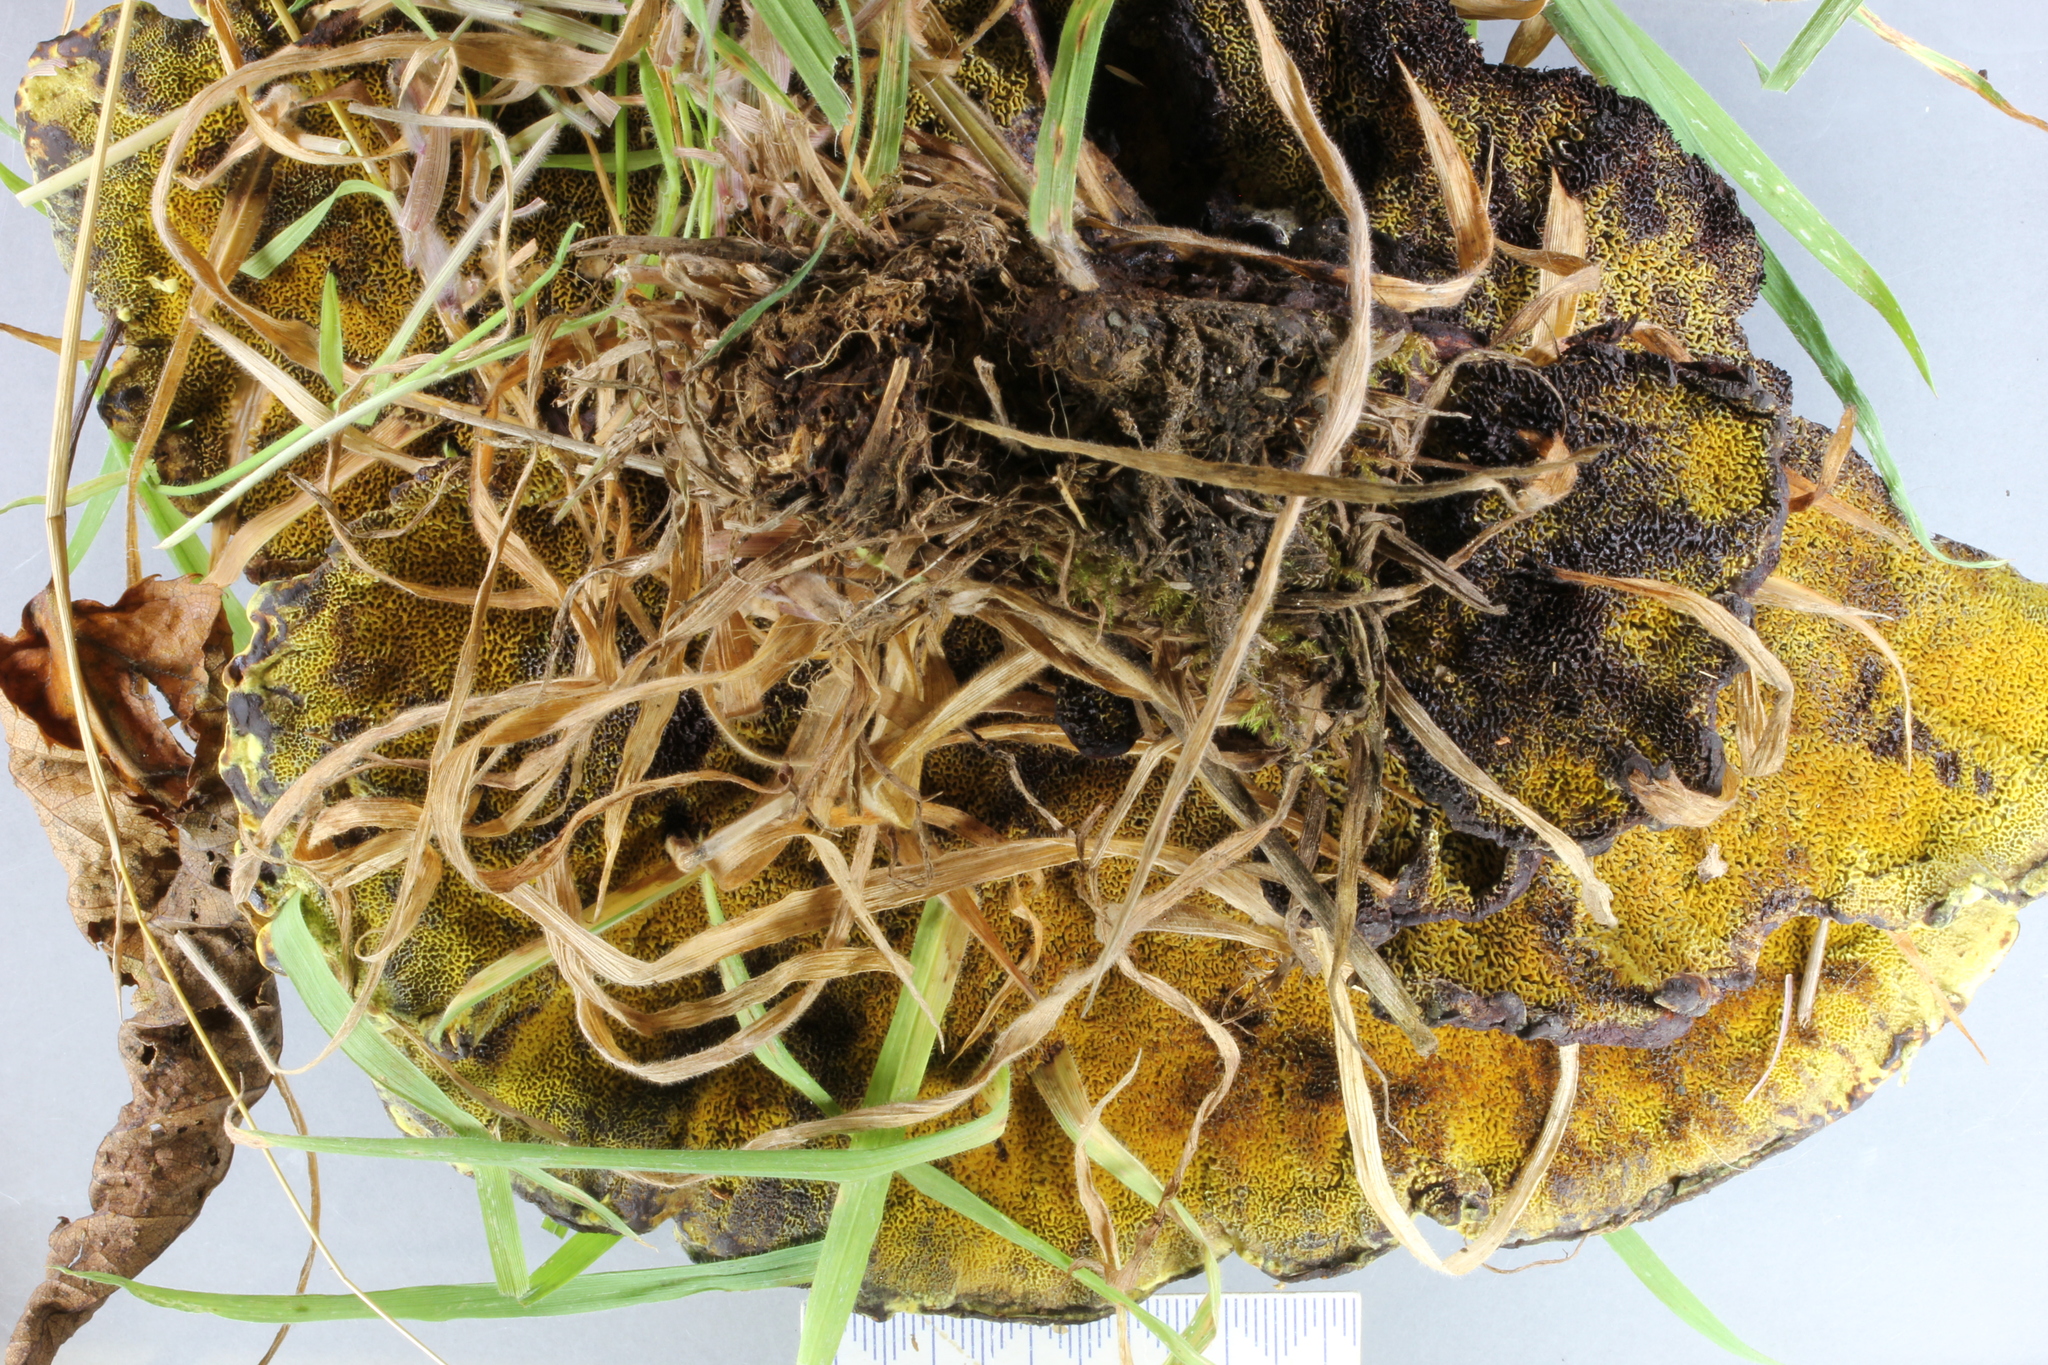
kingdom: Fungi
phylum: Basidiomycota
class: Agaricomycetes
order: Polyporales
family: Laetiporaceae
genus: Phaeolus
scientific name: Phaeolus schweinitzii
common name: Dyer's mazegill
